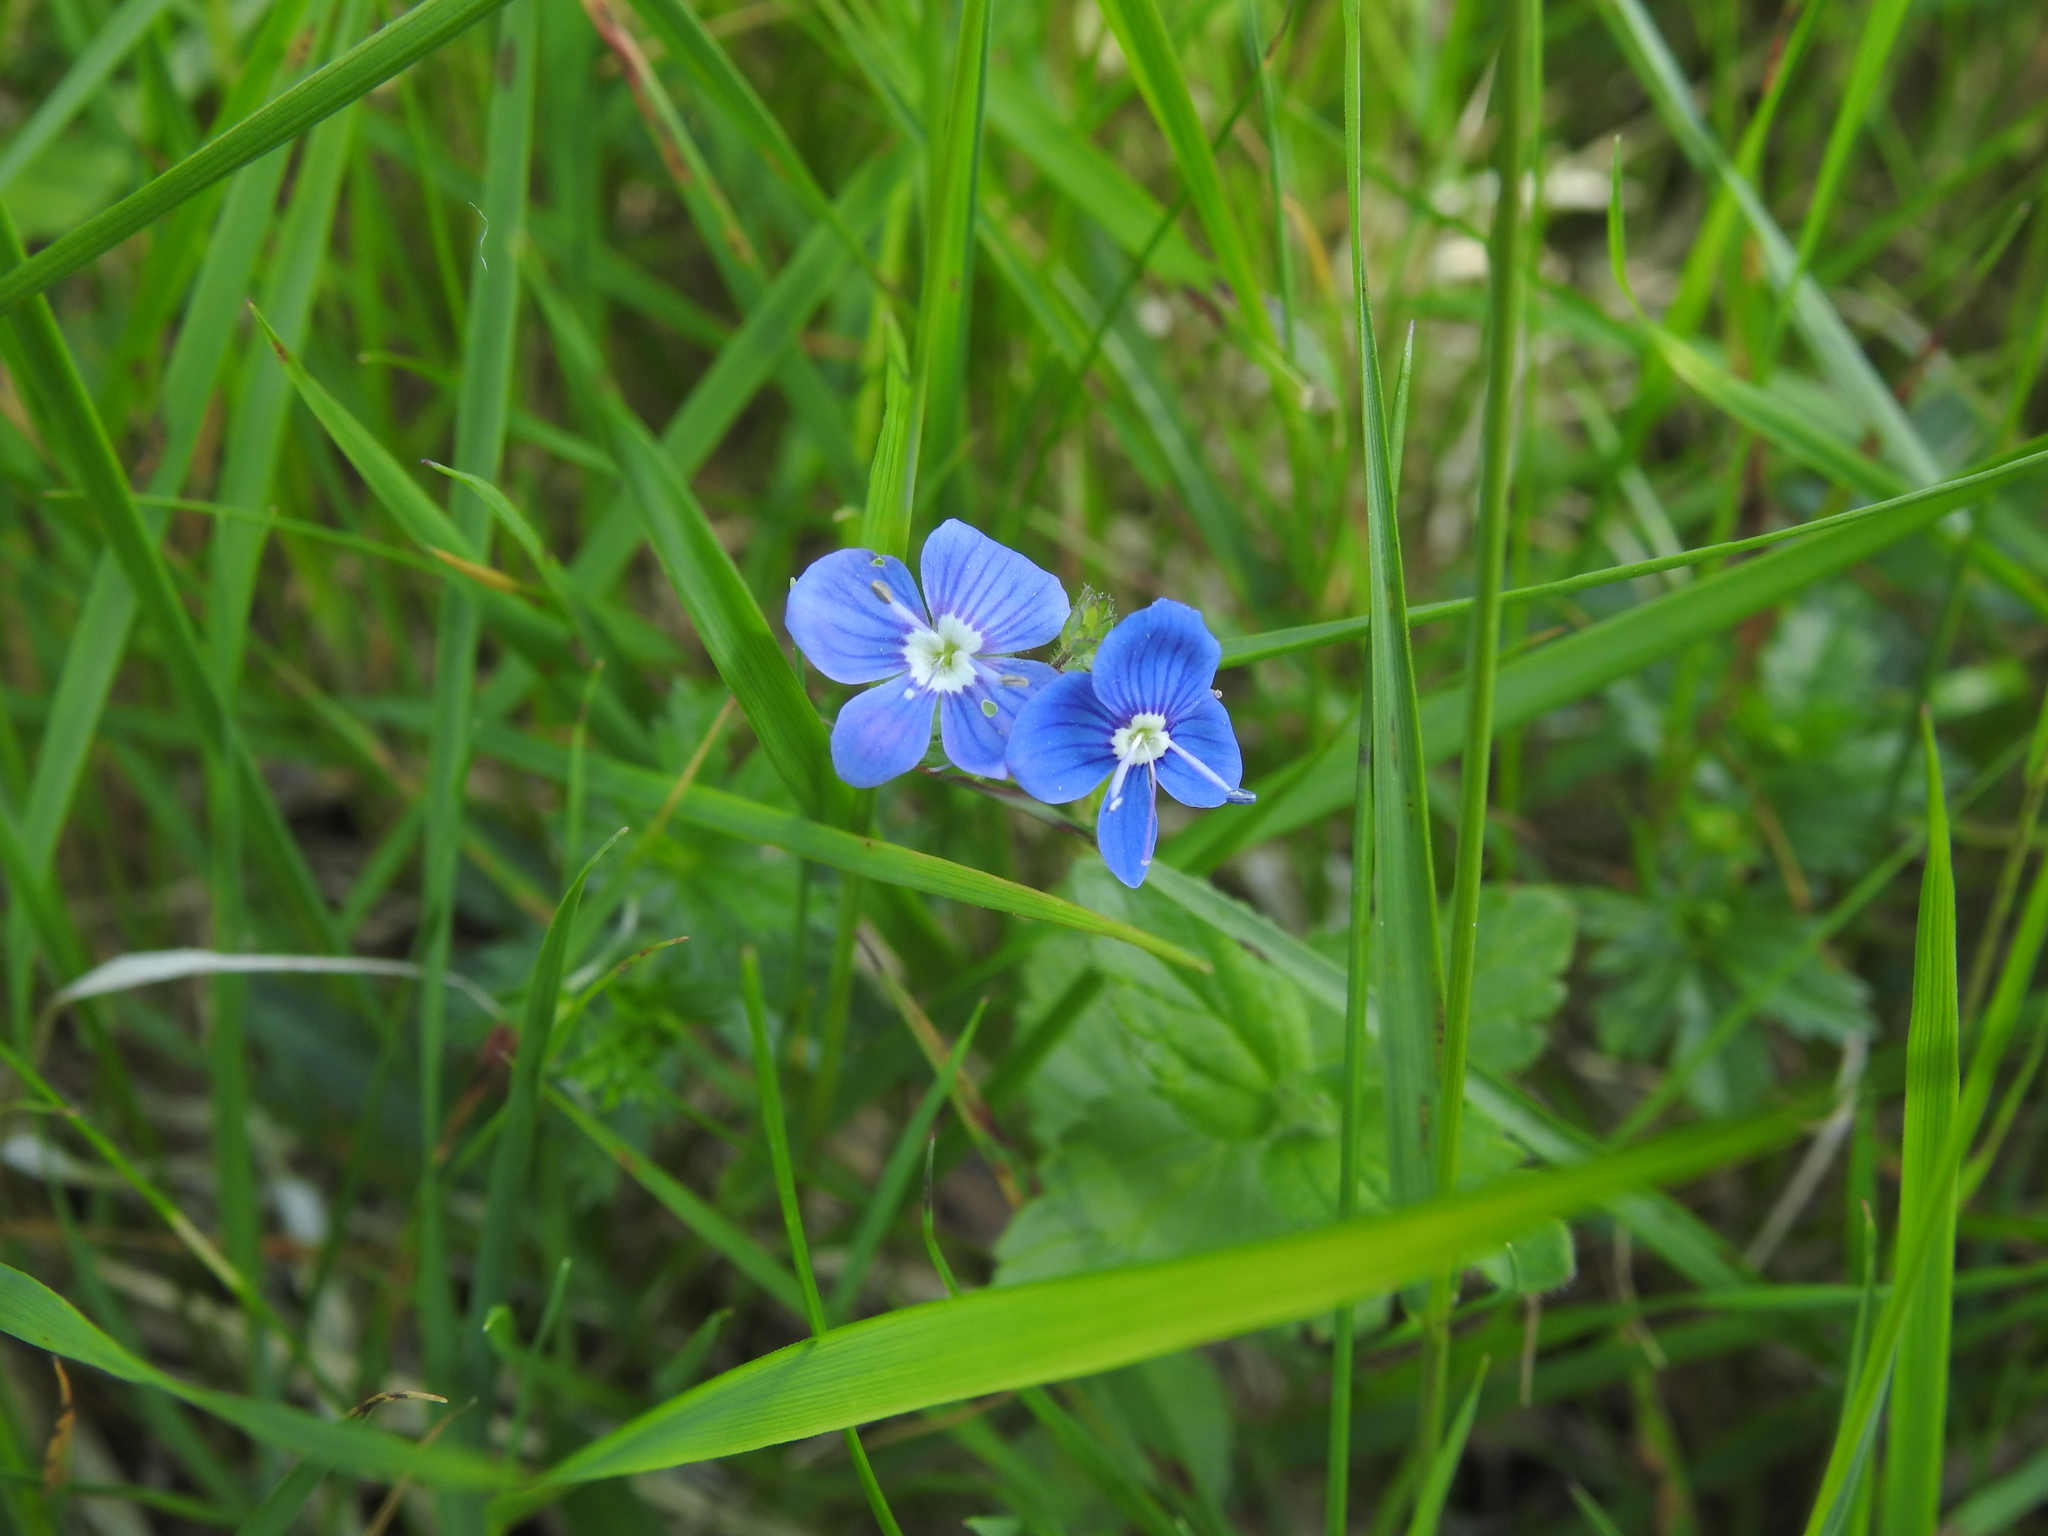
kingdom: Plantae
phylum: Tracheophyta
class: Magnoliopsida
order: Lamiales
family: Plantaginaceae
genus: Veronica
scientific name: Veronica chamaedrys
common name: Germander speedwell
